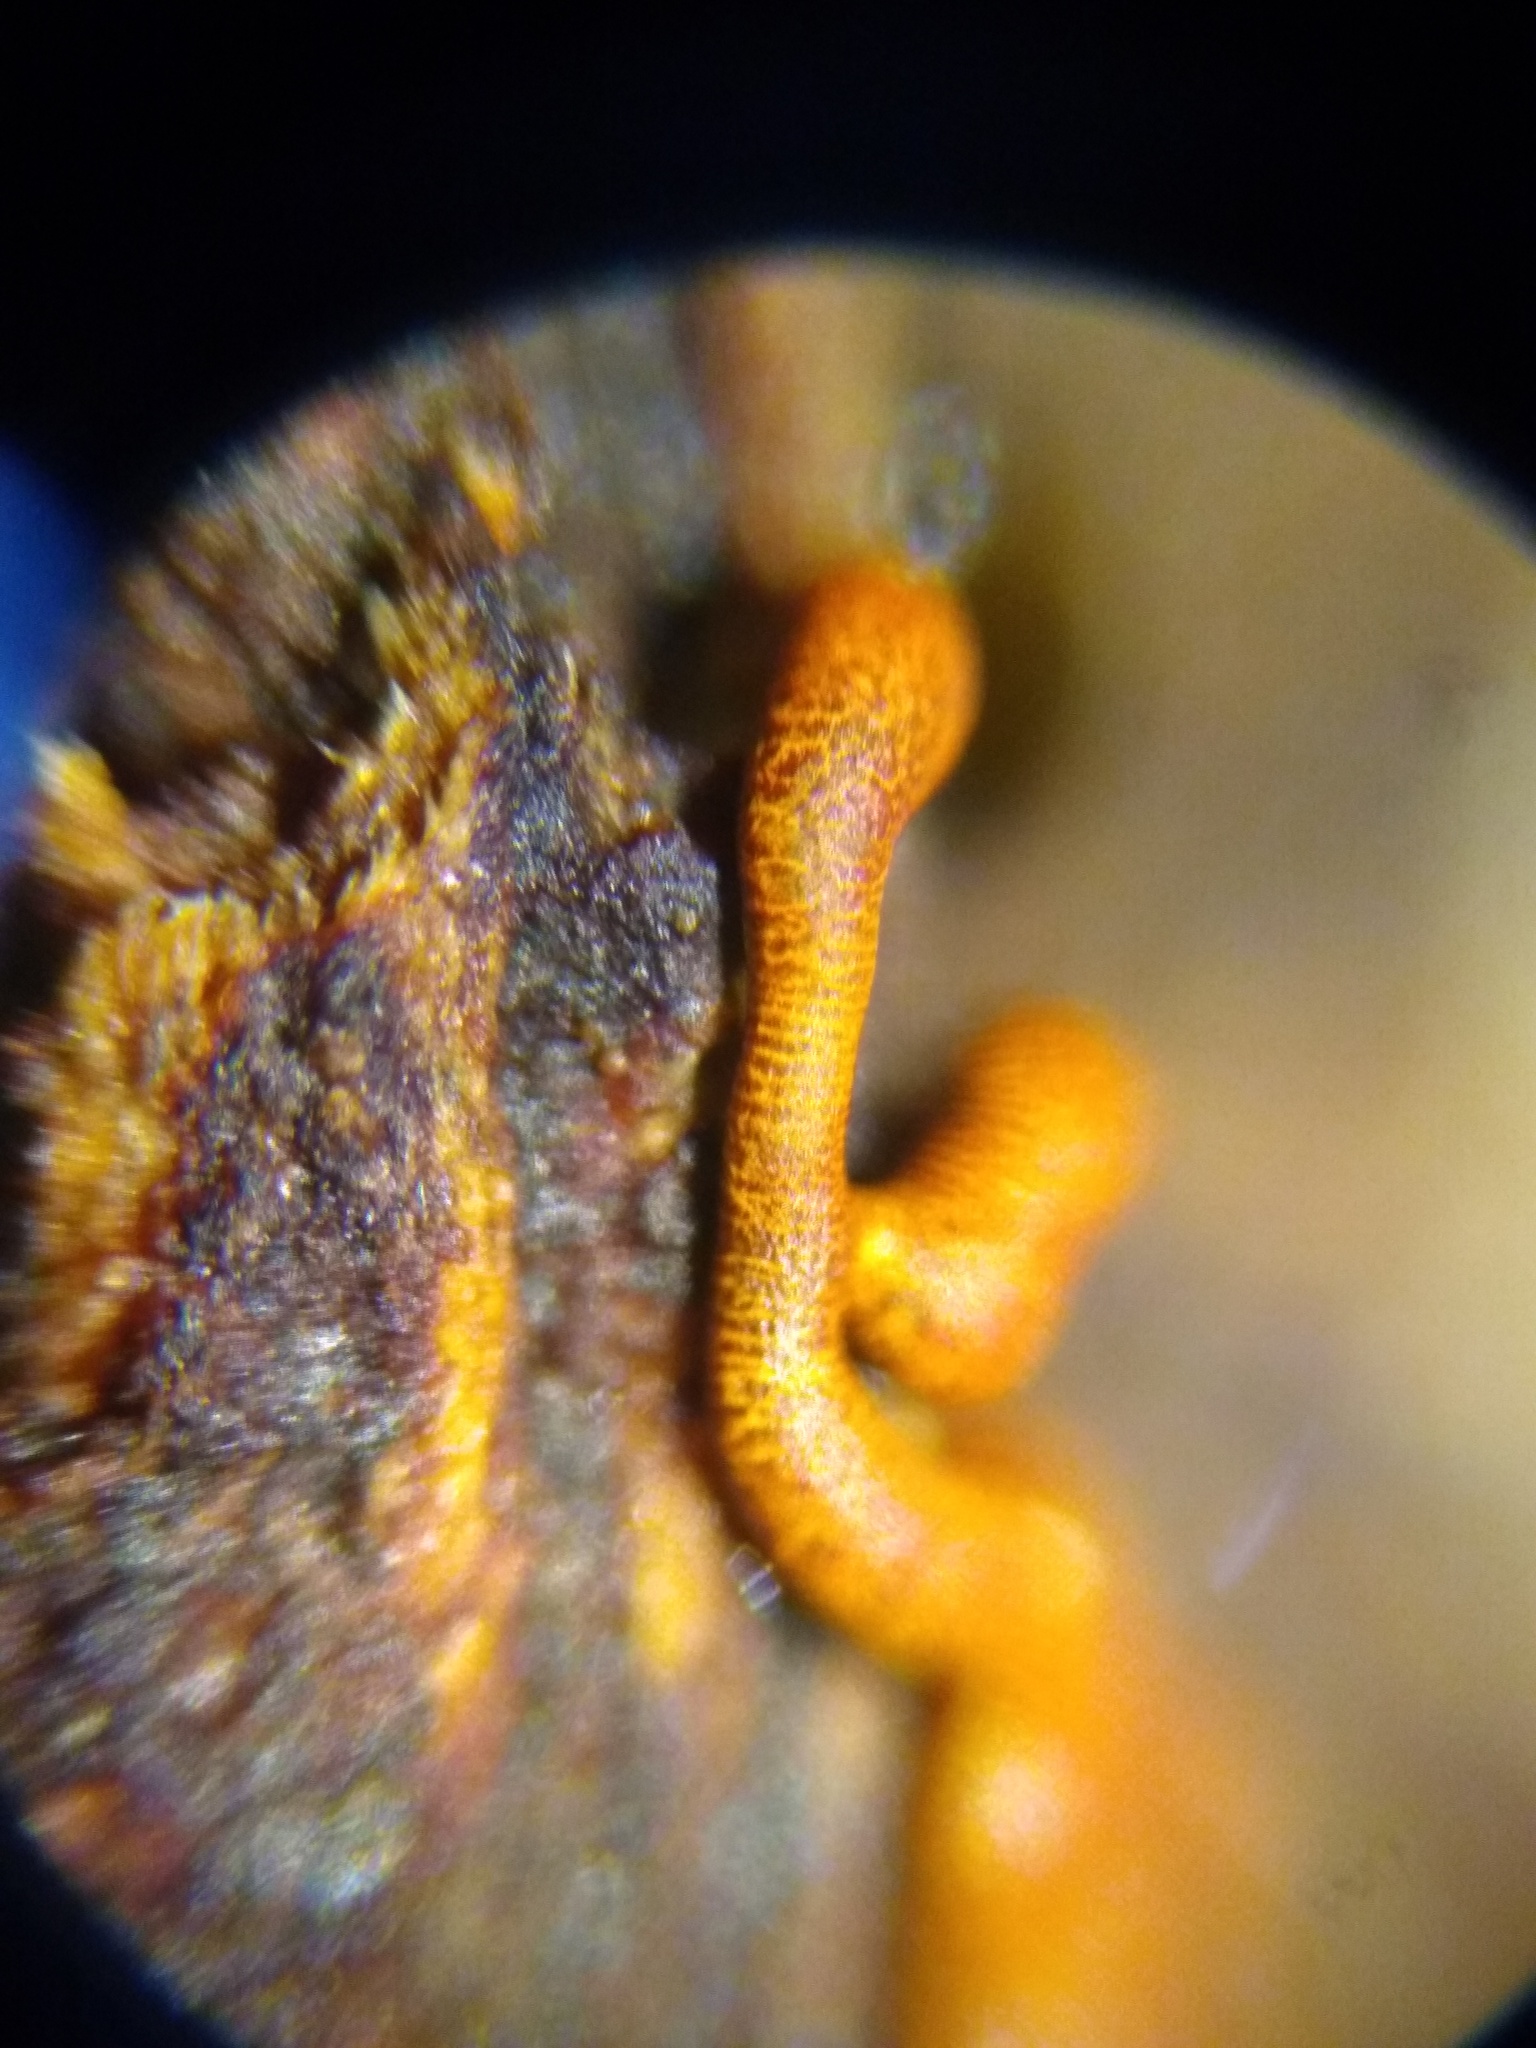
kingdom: Protozoa
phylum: Mycetozoa
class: Myxomycetes
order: Physarales
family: Physaraceae
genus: Willkommlangea
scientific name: Willkommlangea reticulata
